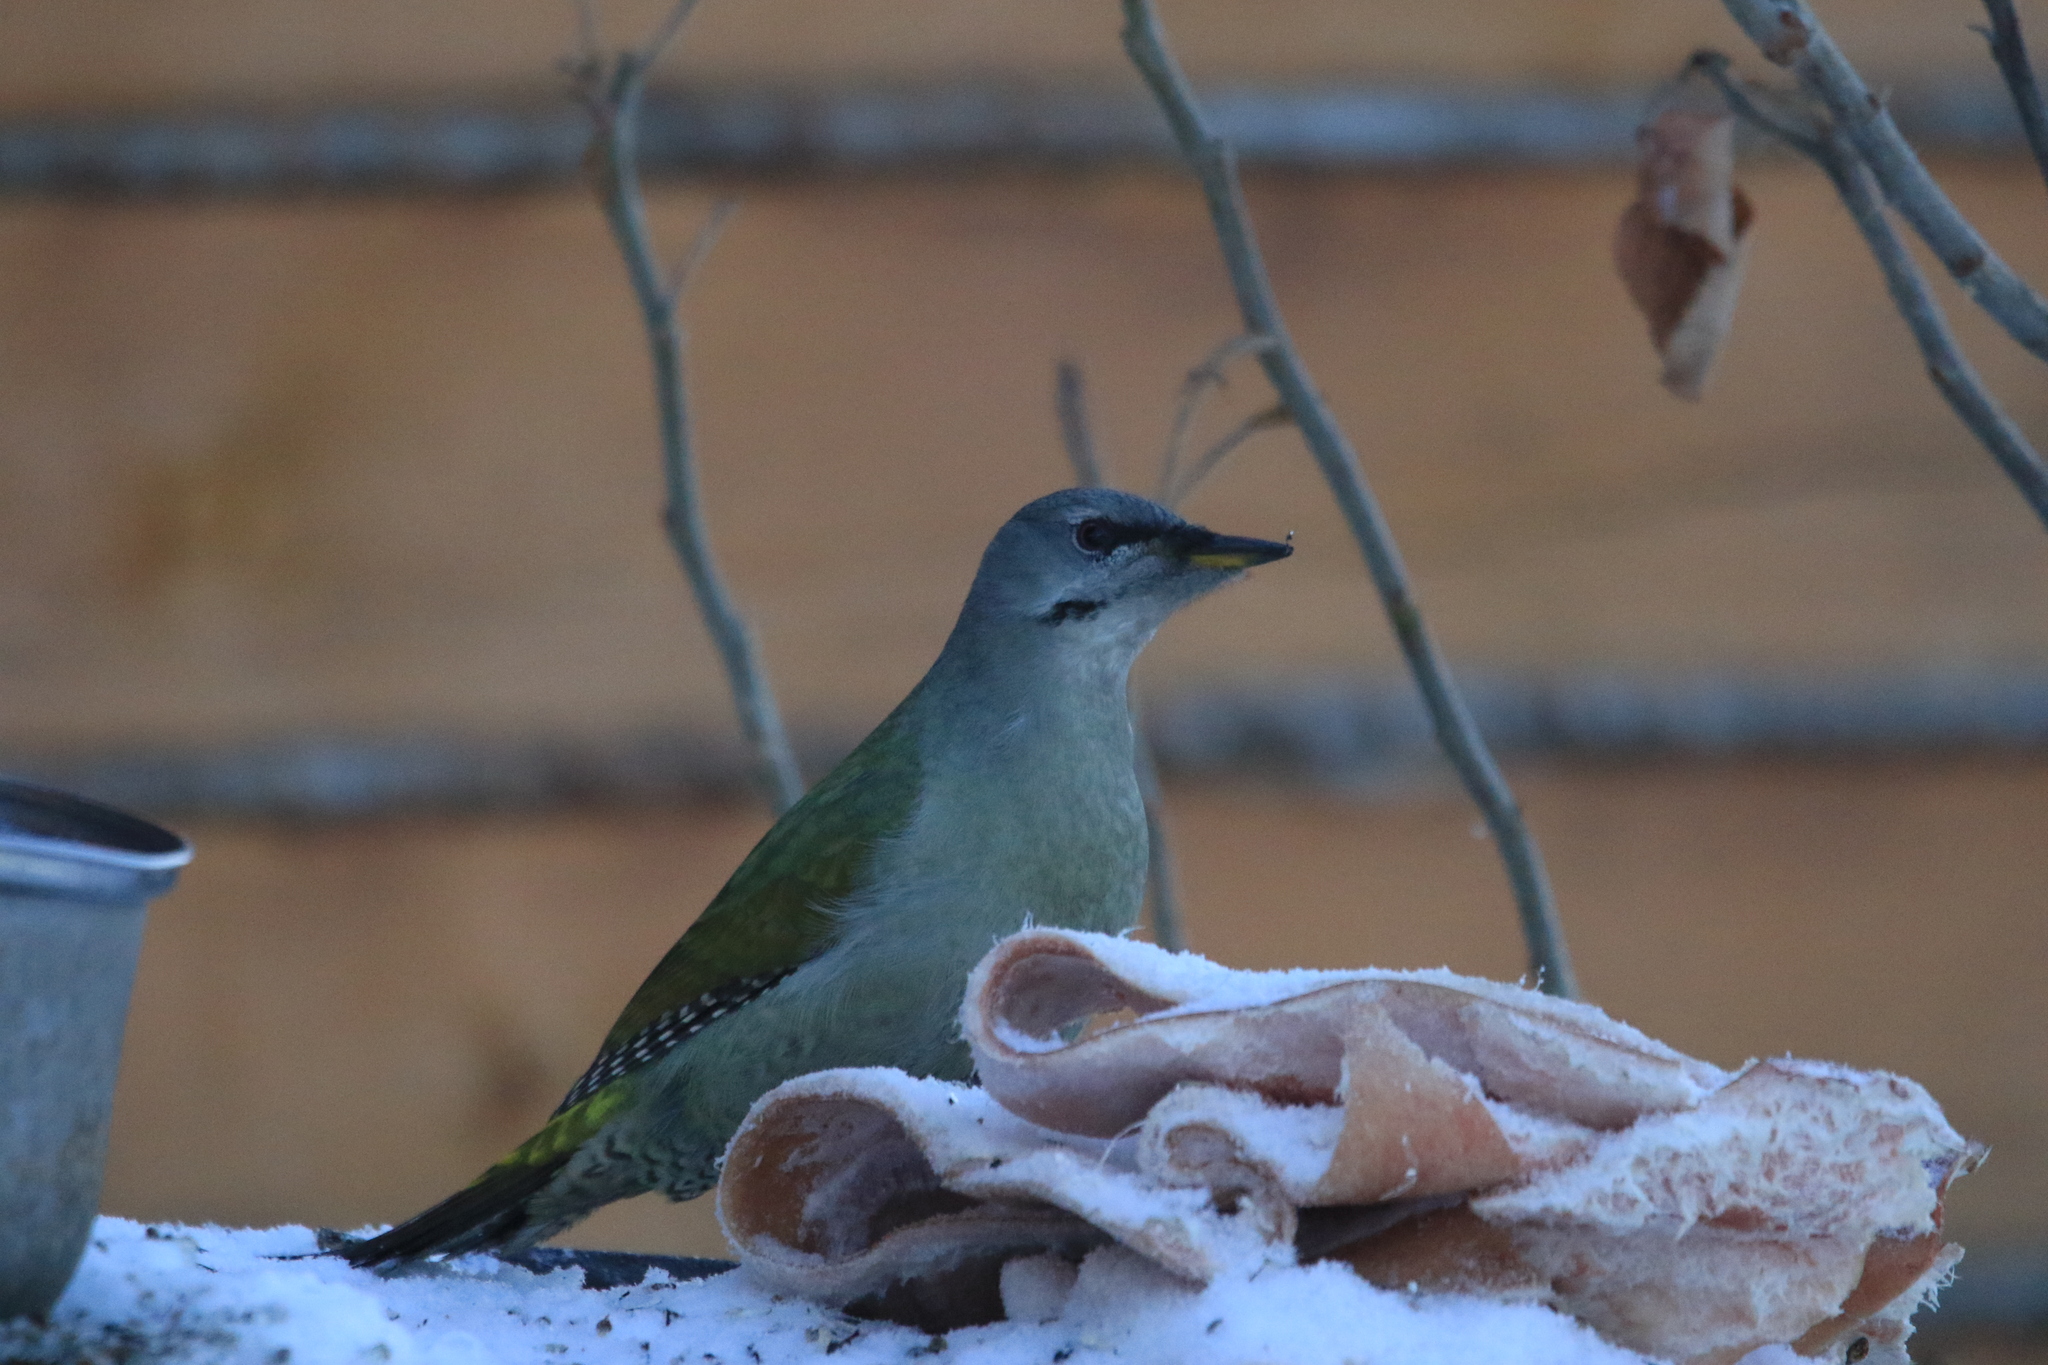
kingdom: Animalia
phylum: Chordata
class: Aves
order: Piciformes
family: Picidae
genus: Picus
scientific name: Picus canus
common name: Grey-headed woodpecker
